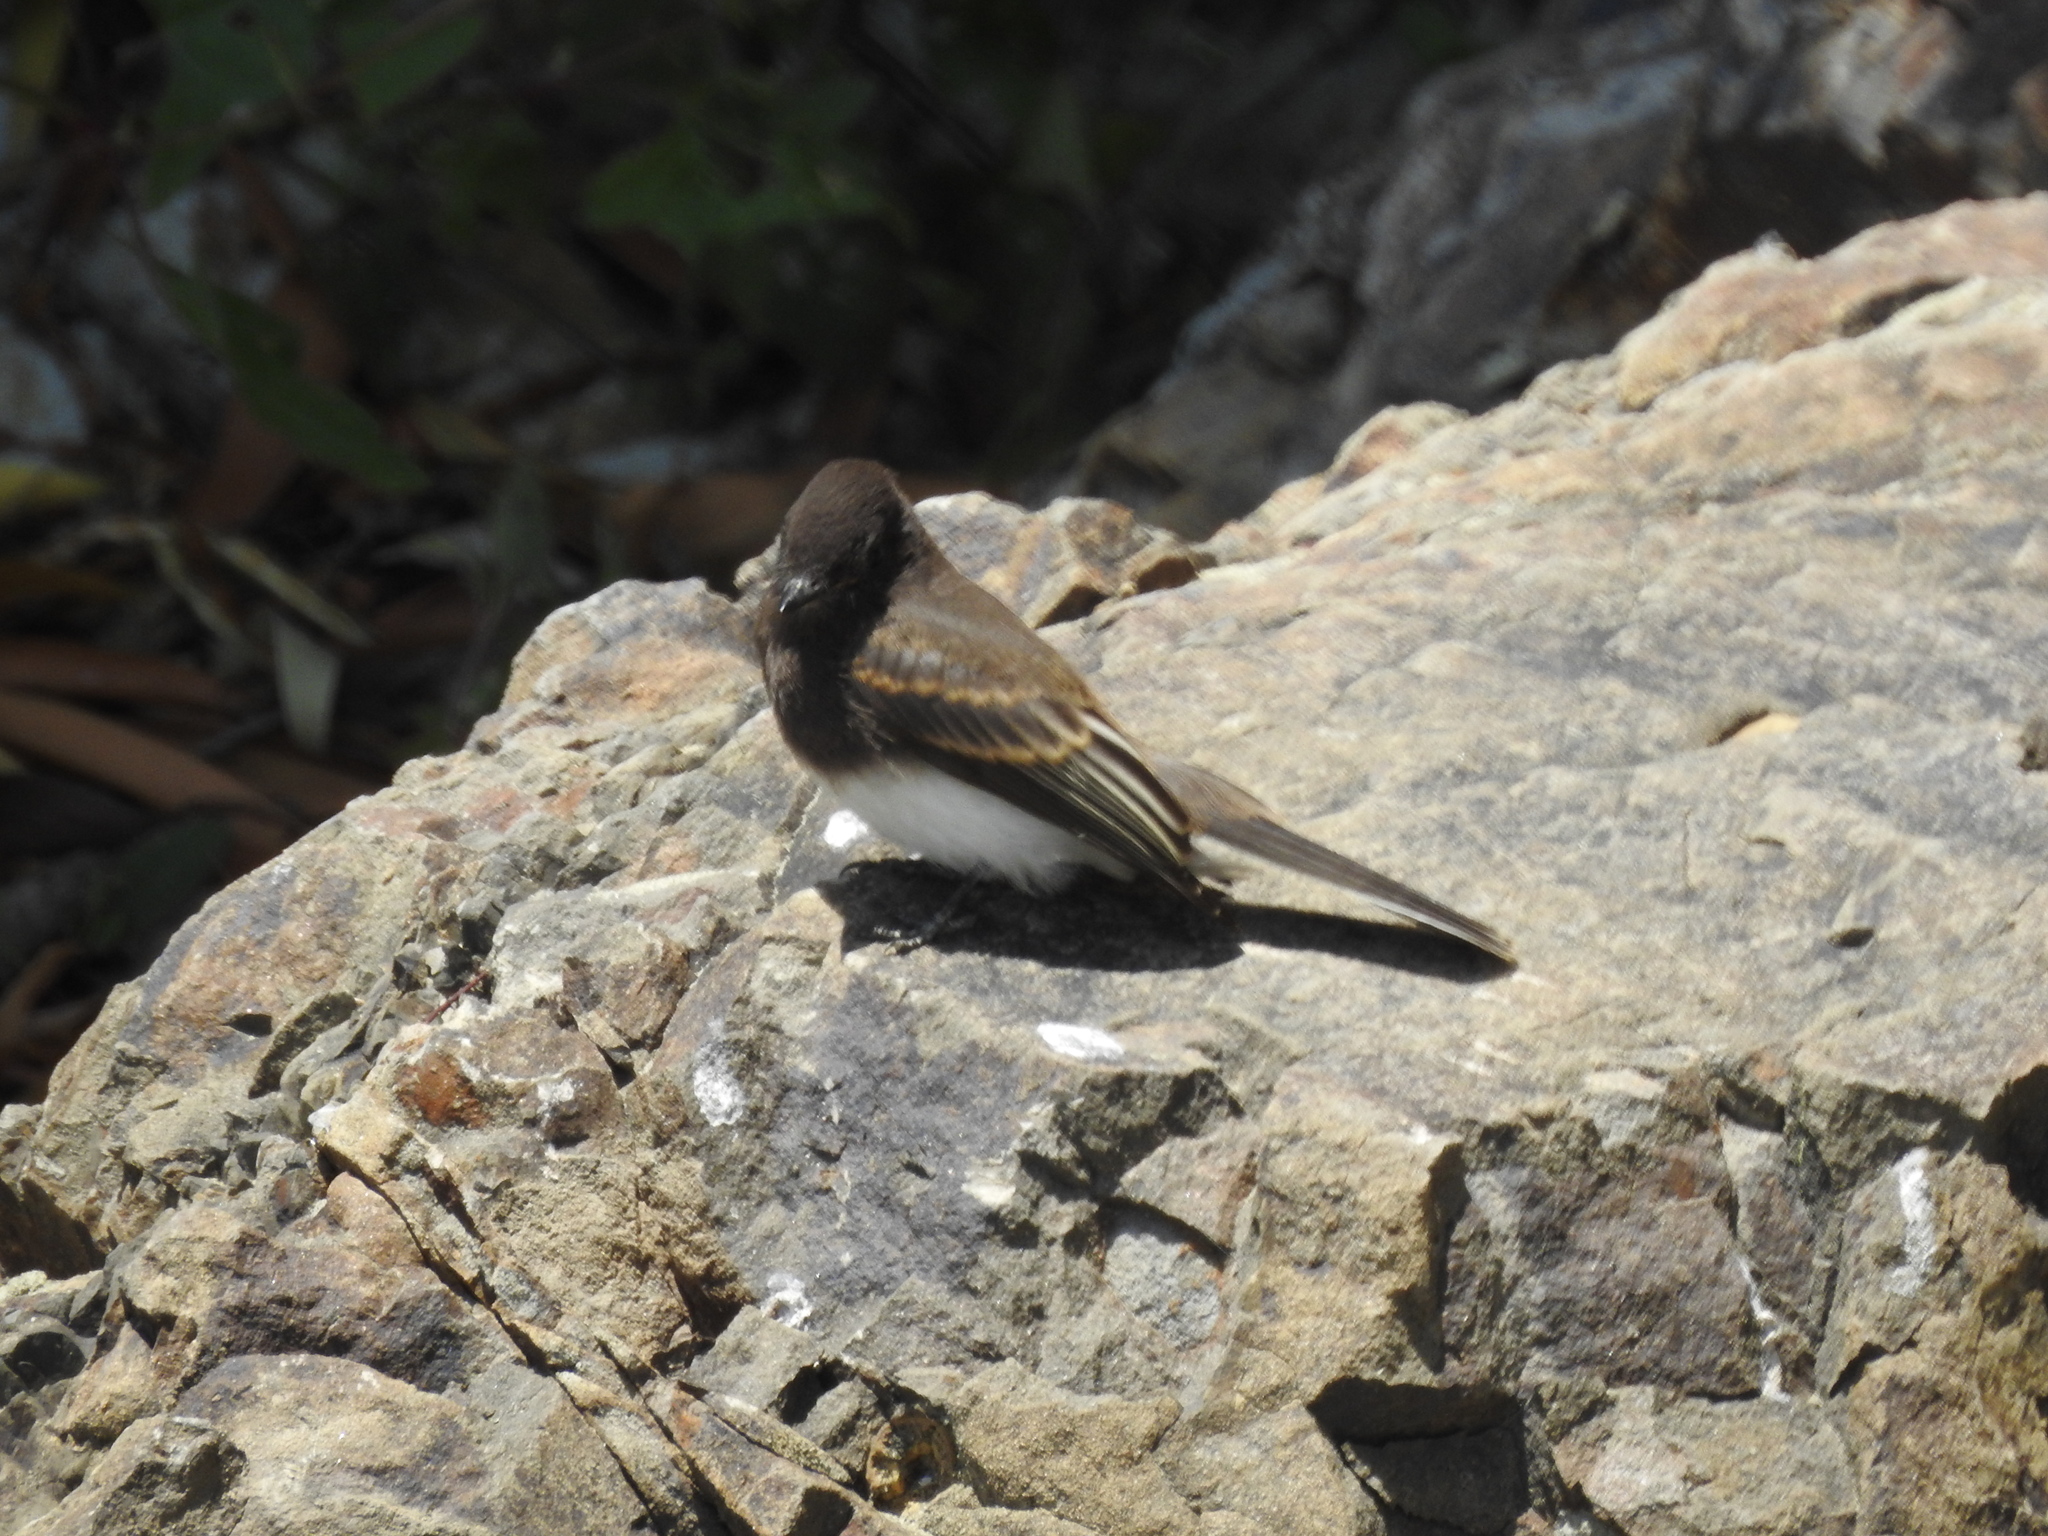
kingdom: Animalia
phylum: Chordata
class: Aves
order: Passeriformes
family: Tyrannidae
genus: Sayornis
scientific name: Sayornis nigricans
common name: Black phoebe
